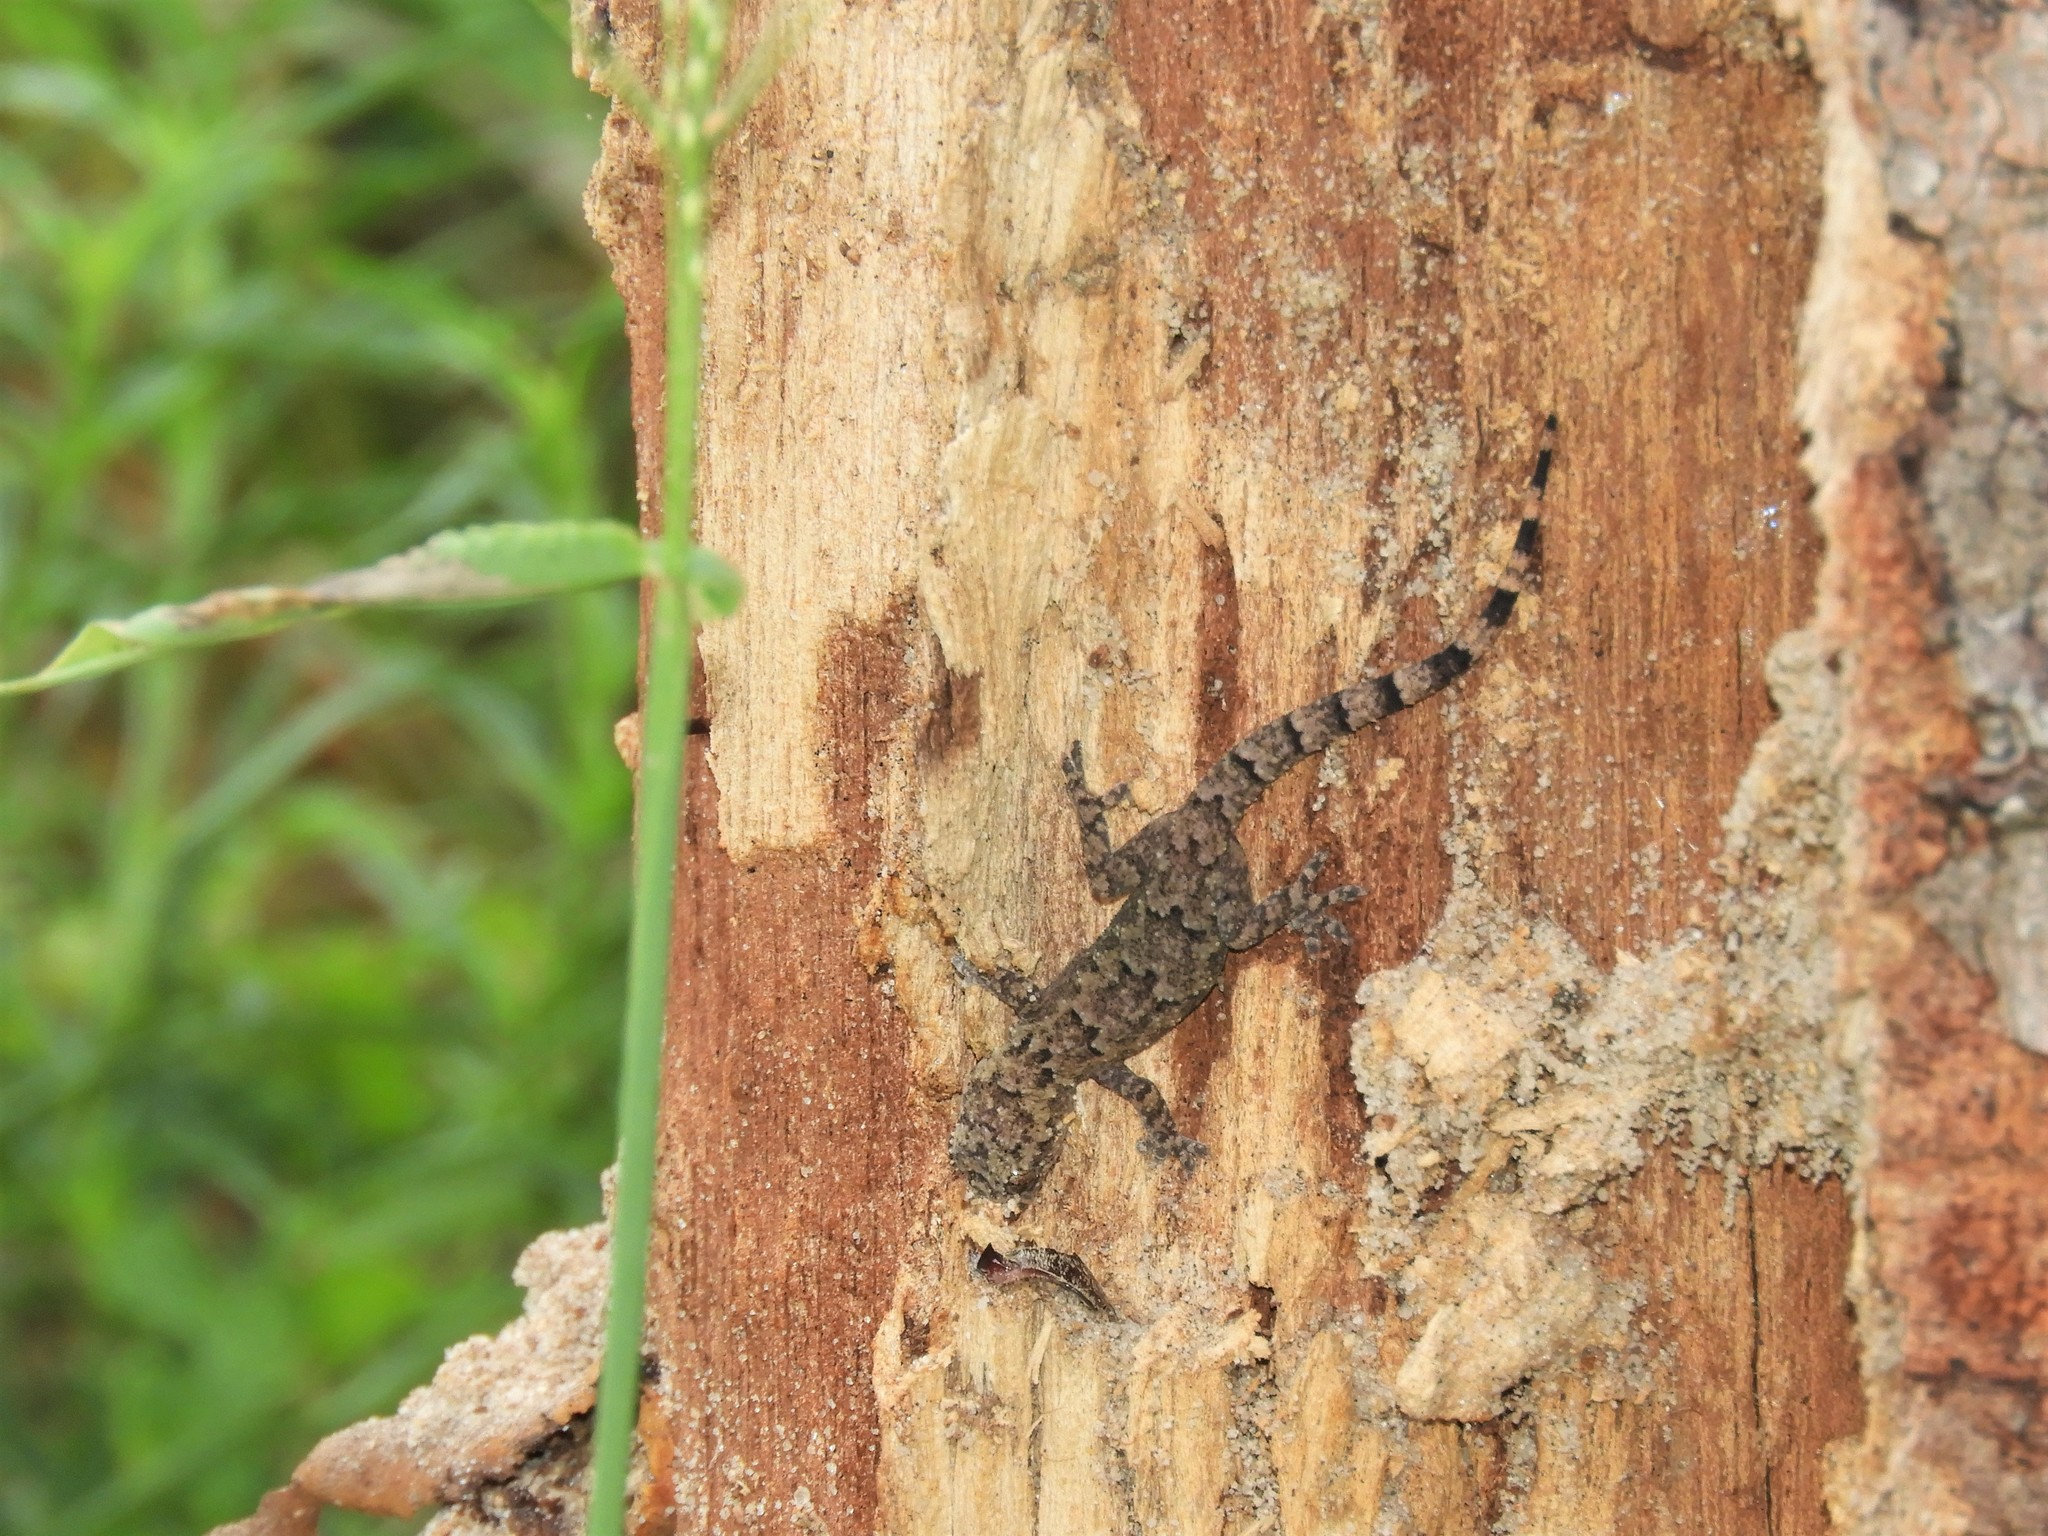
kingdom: Animalia
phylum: Chordata
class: Squamata
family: Gekkonidae
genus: Hemidactylus
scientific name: Hemidactylus mabouia
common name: House gecko
